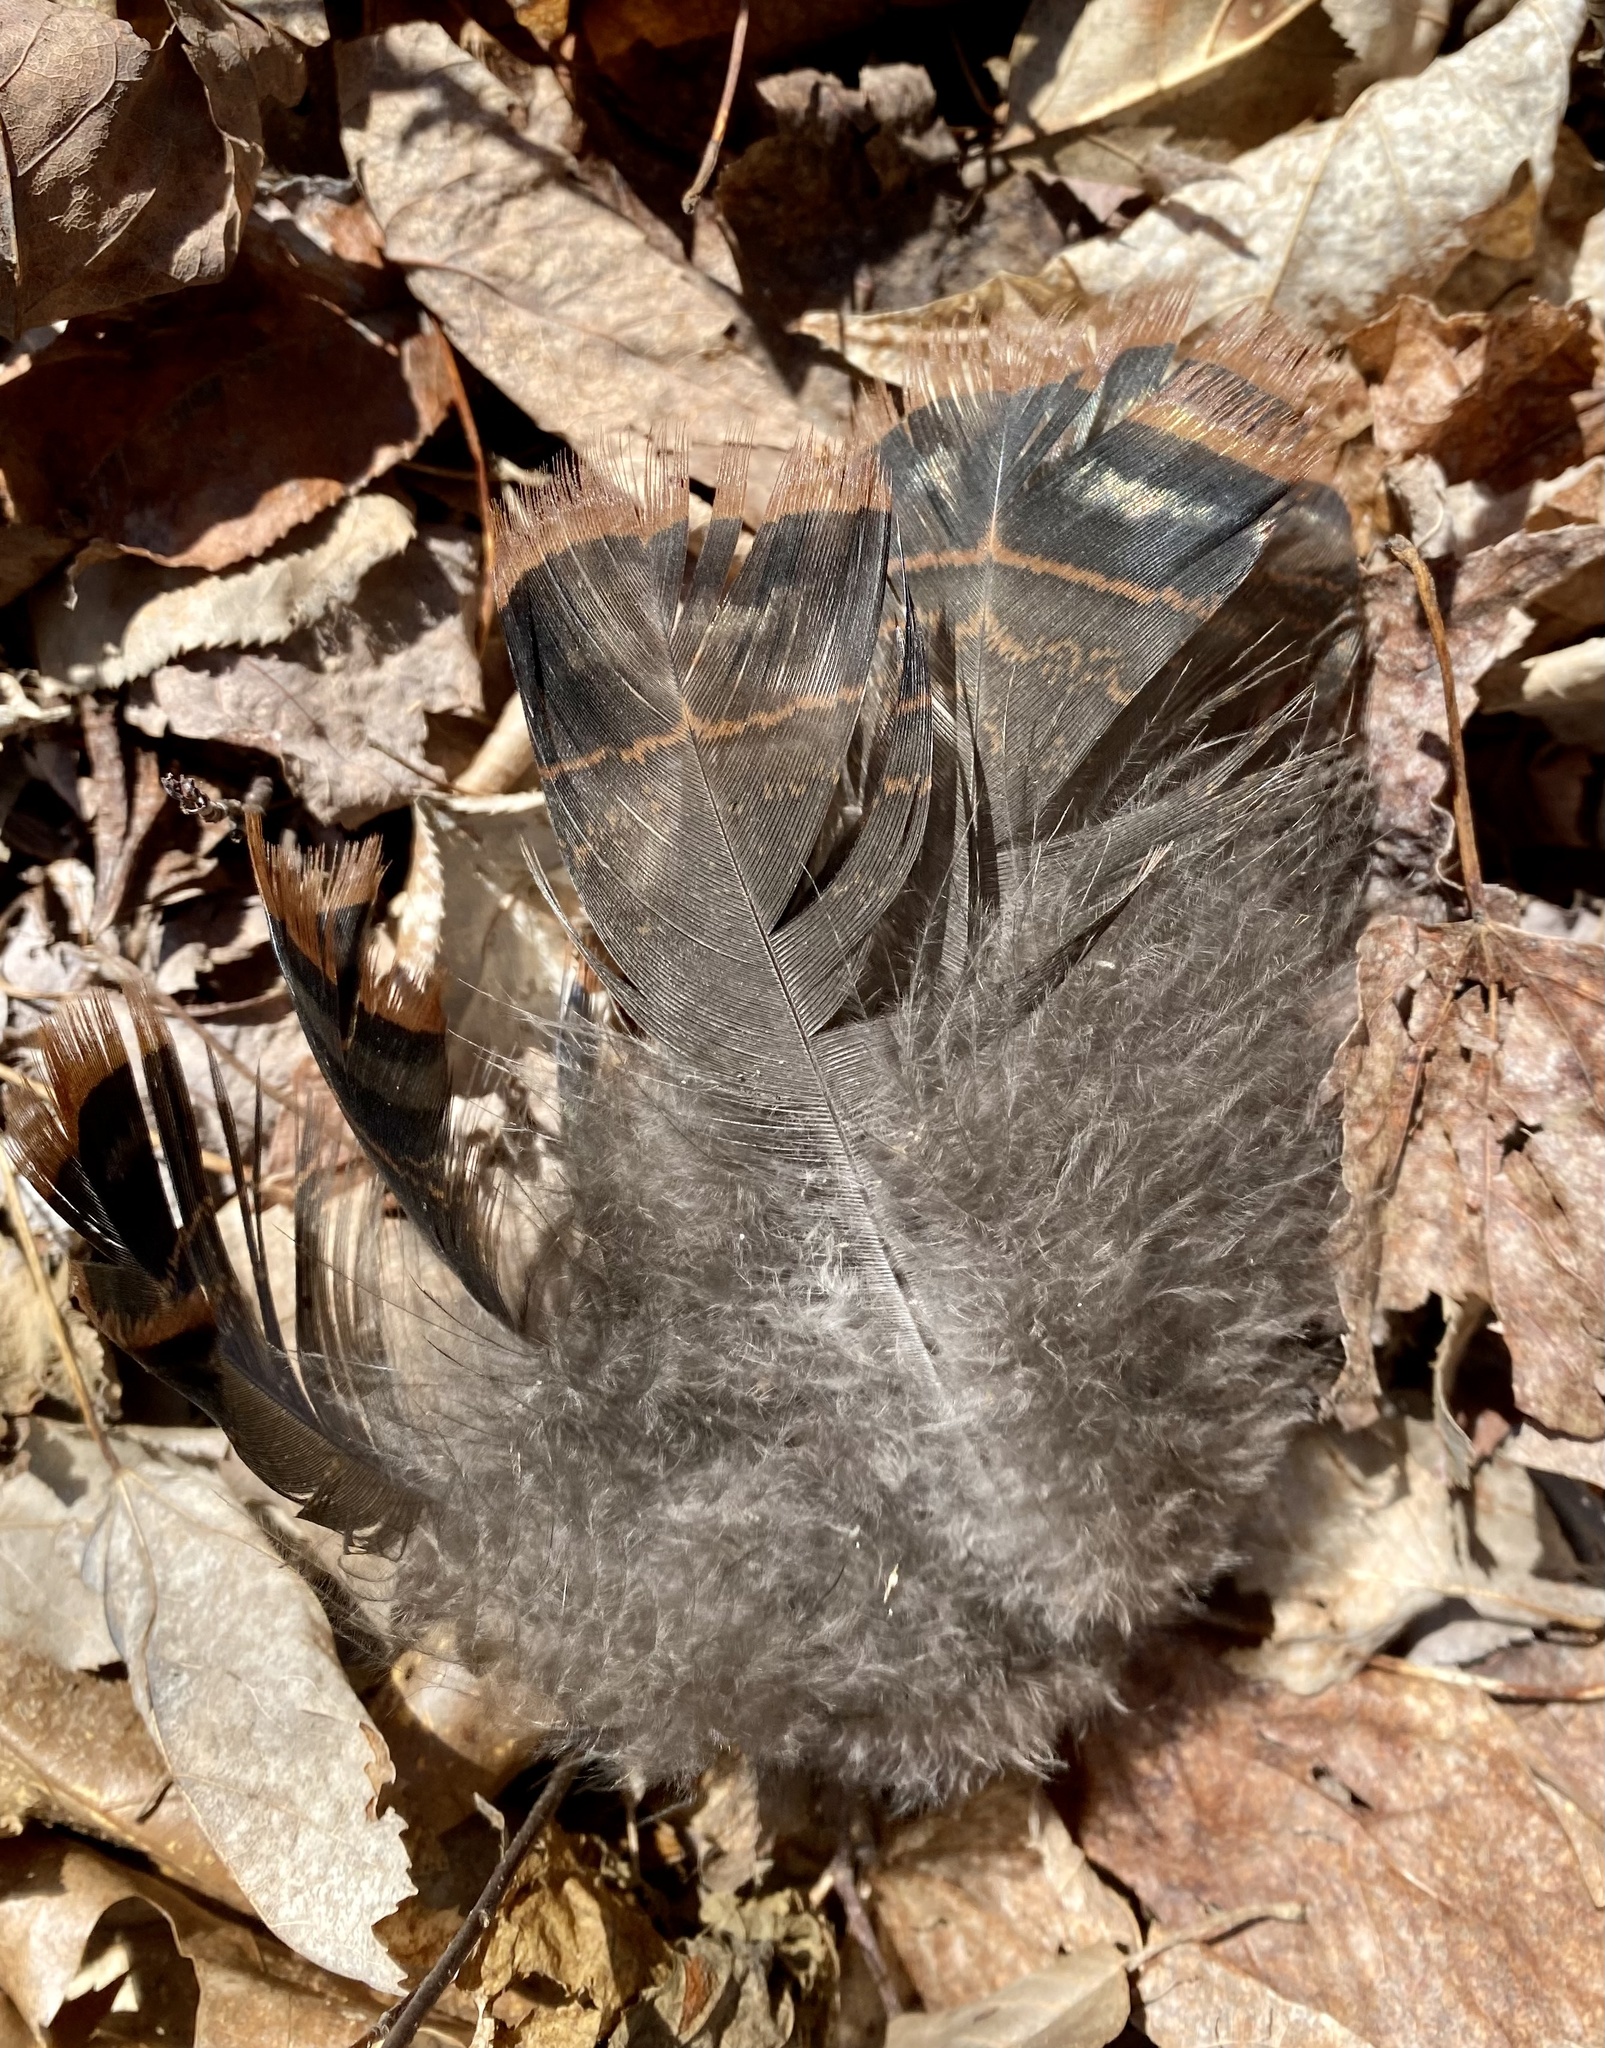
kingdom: Animalia
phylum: Chordata
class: Aves
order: Galliformes
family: Phasianidae
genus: Meleagris
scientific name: Meleagris gallopavo
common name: Wild turkey
